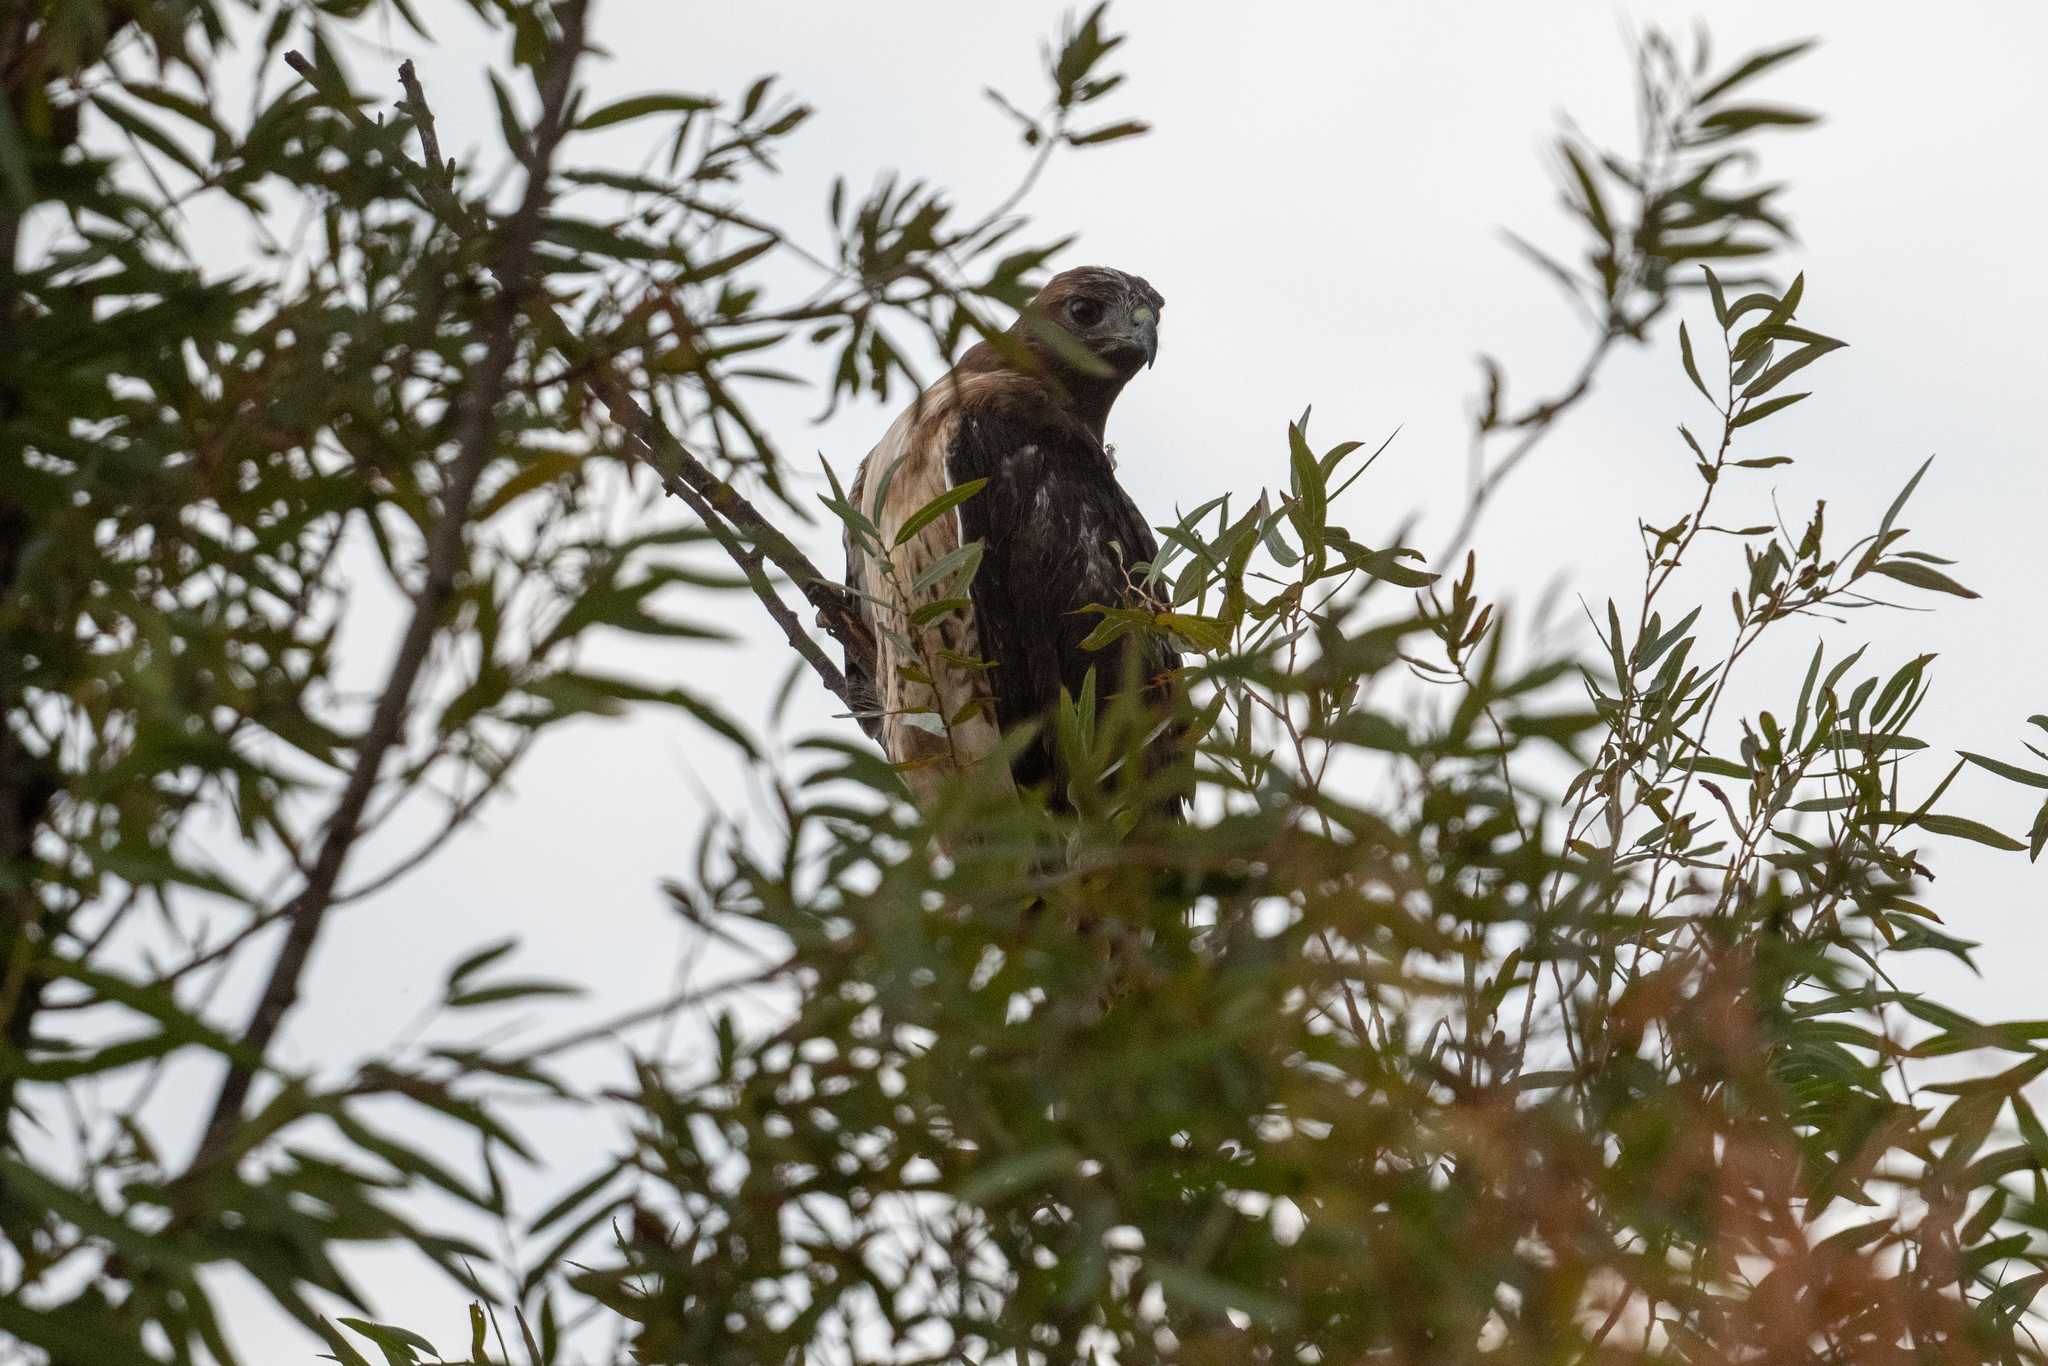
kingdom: Animalia
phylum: Chordata
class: Aves
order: Accipitriformes
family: Accipitridae
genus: Buteo
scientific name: Buteo jamaicensis
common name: Red-tailed hawk
